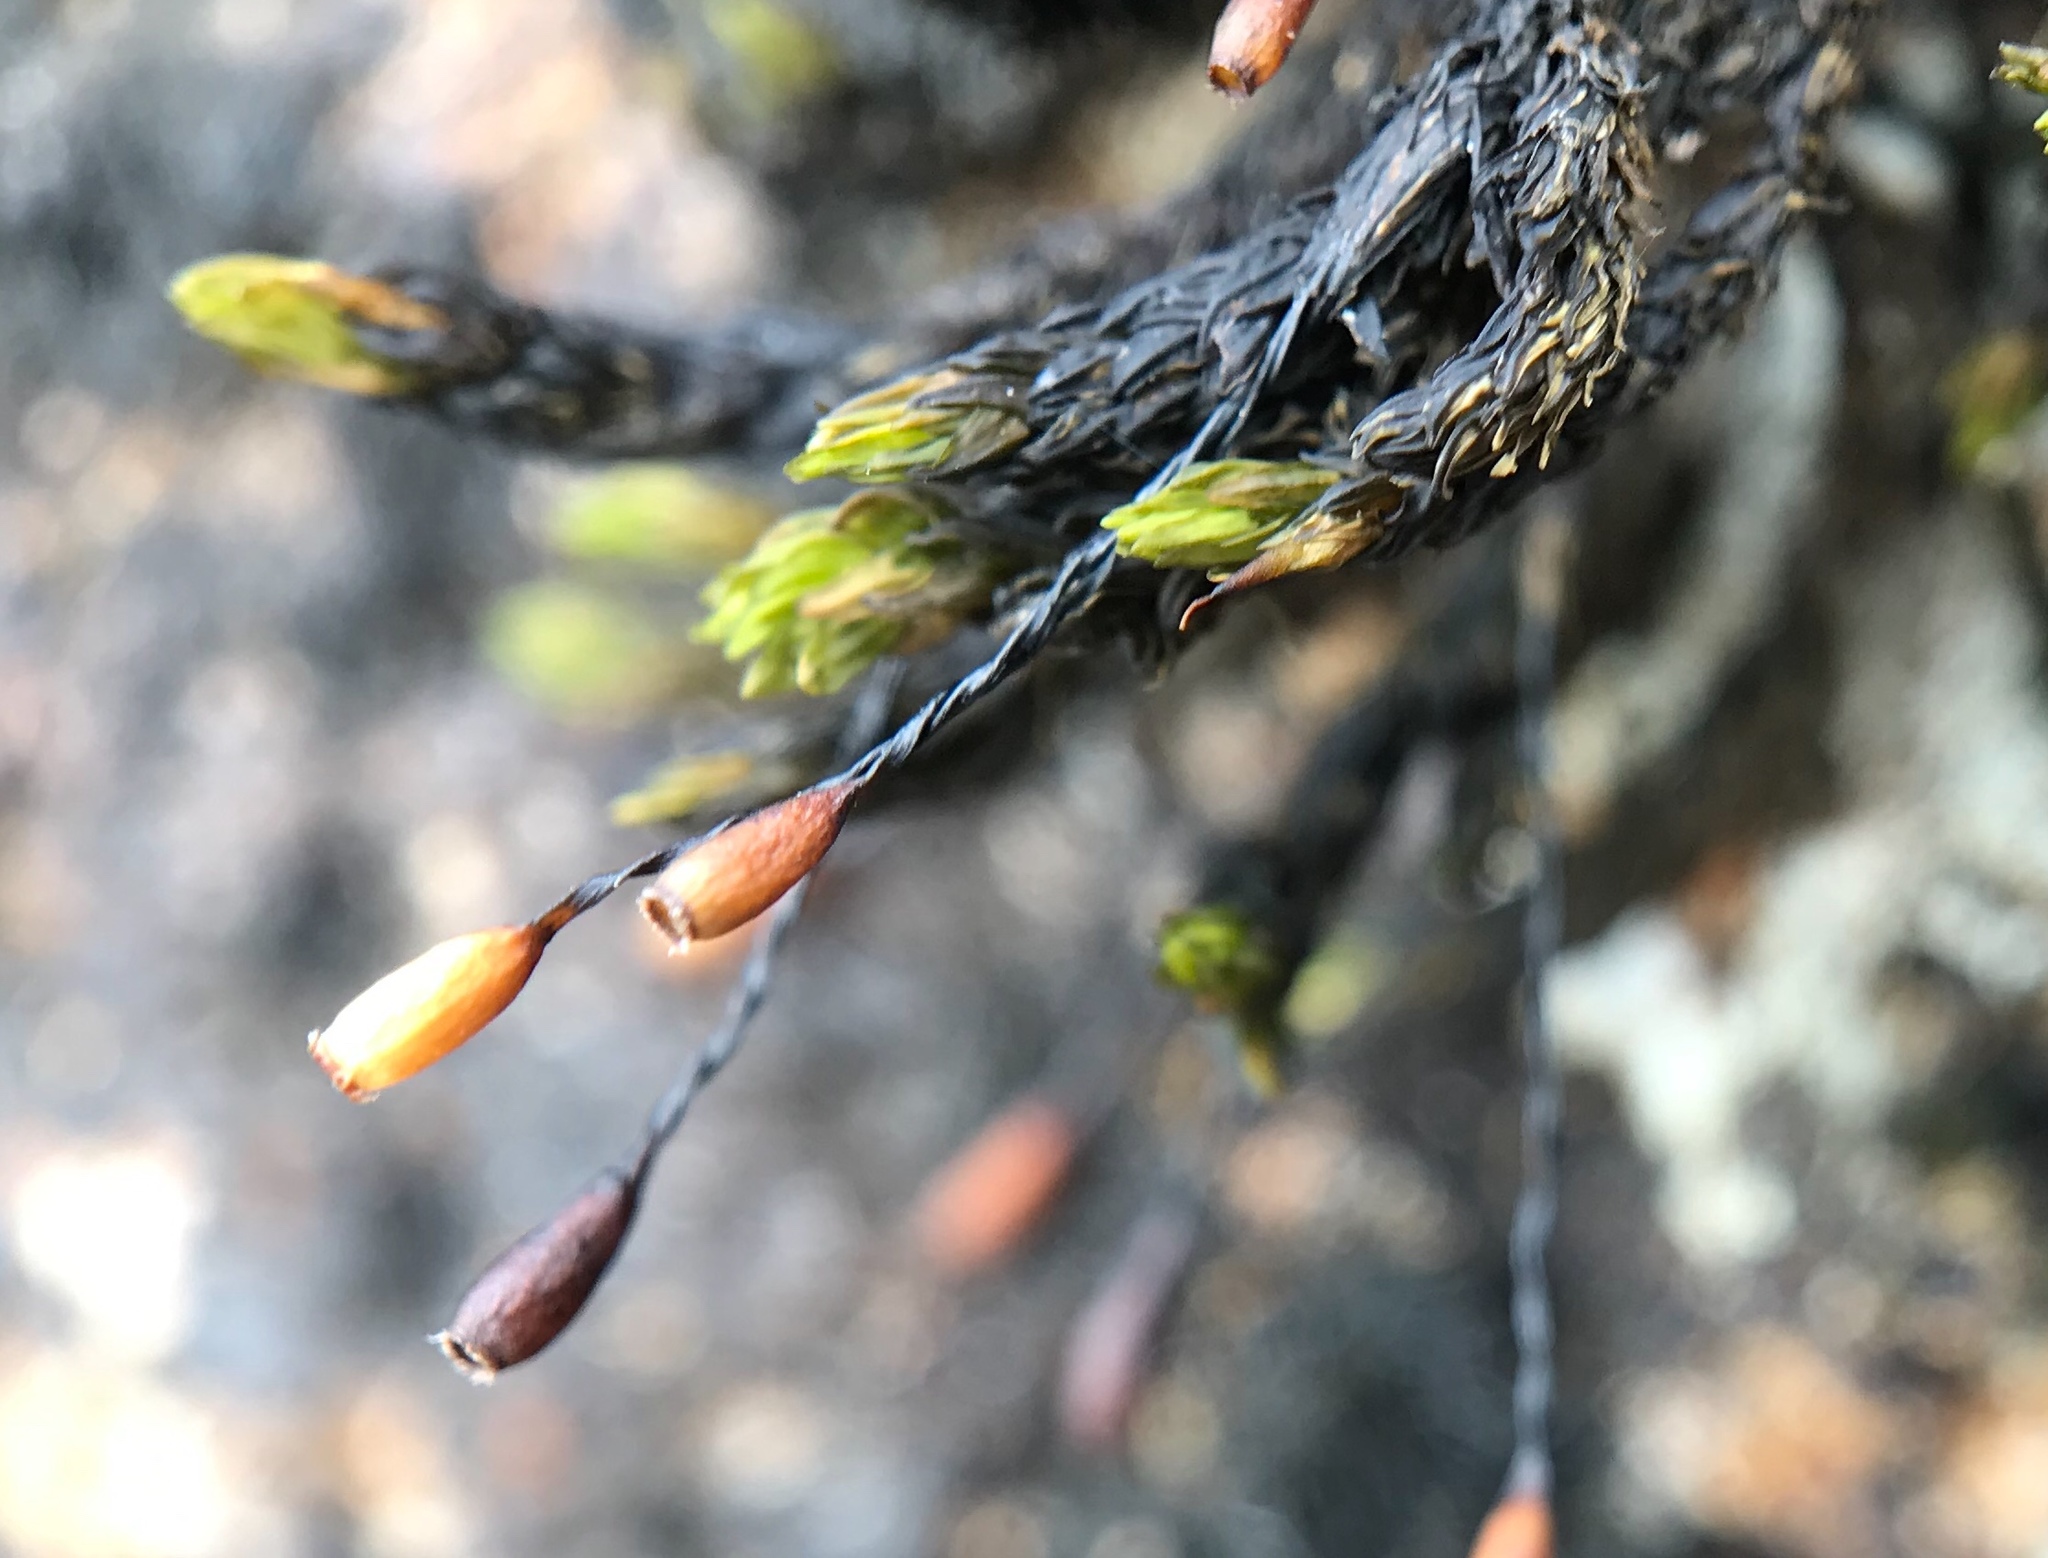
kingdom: Plantae
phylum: Bryophyta
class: Bryopsida
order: Grimmiales
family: Grimmiaceae
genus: Codriophorus
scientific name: Codriophorus acicularis
